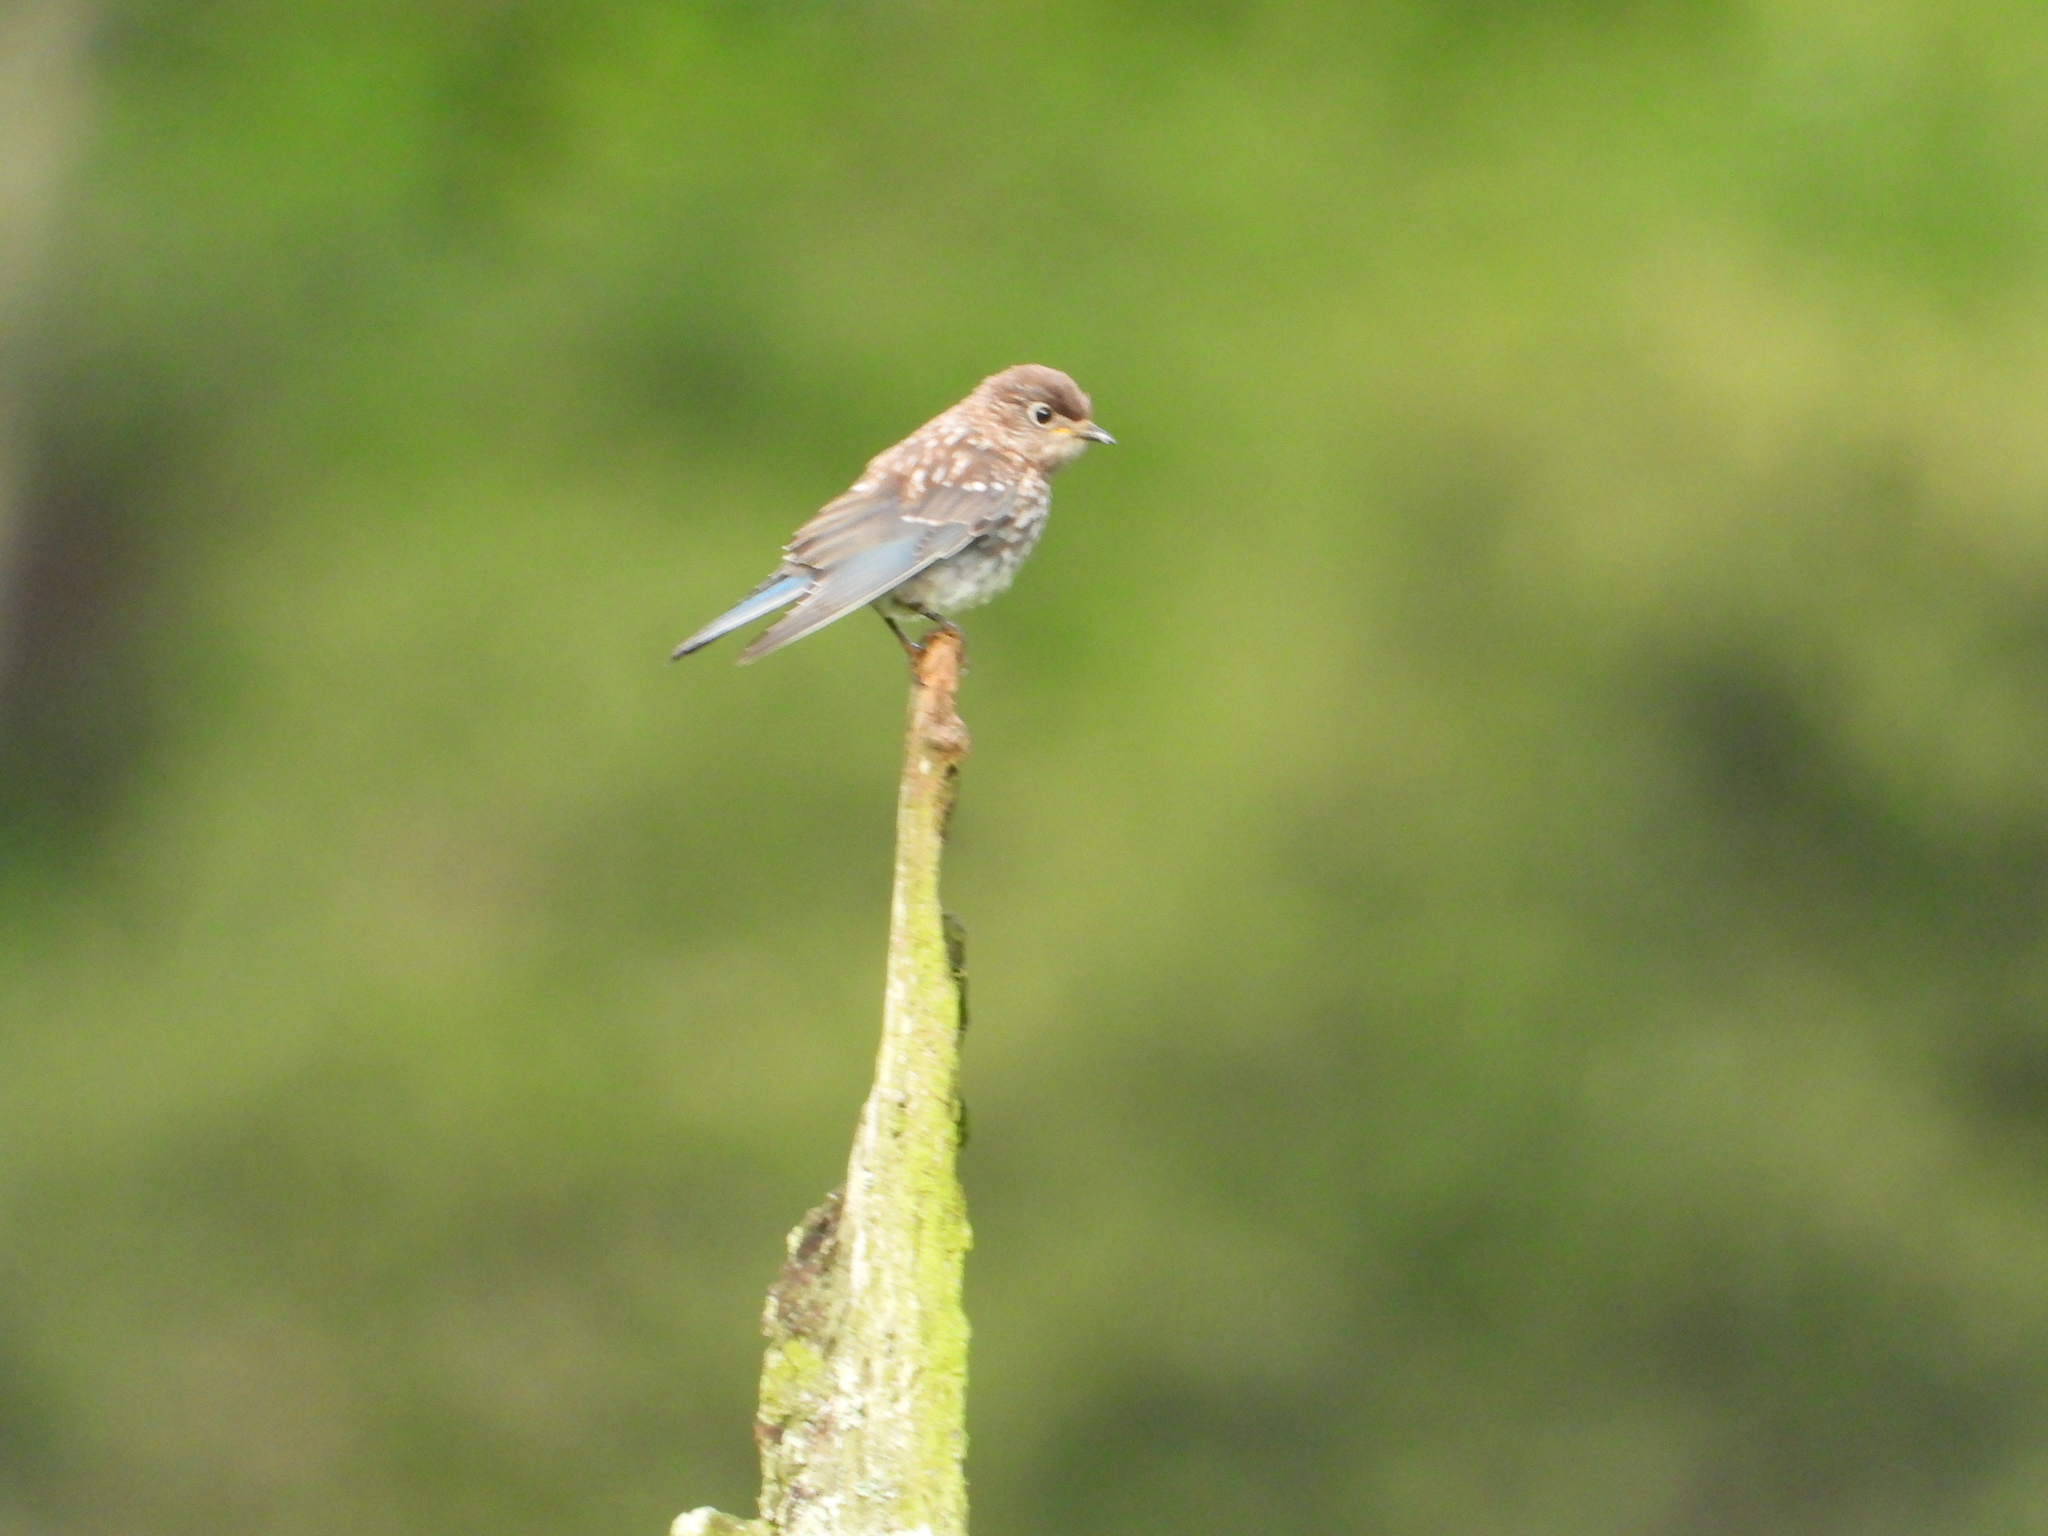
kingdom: Animalia
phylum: Chordata
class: Aves
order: Passeriformes
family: Turdidae
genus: Sialia
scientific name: Sialia sialis
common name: Eastern bluebird
